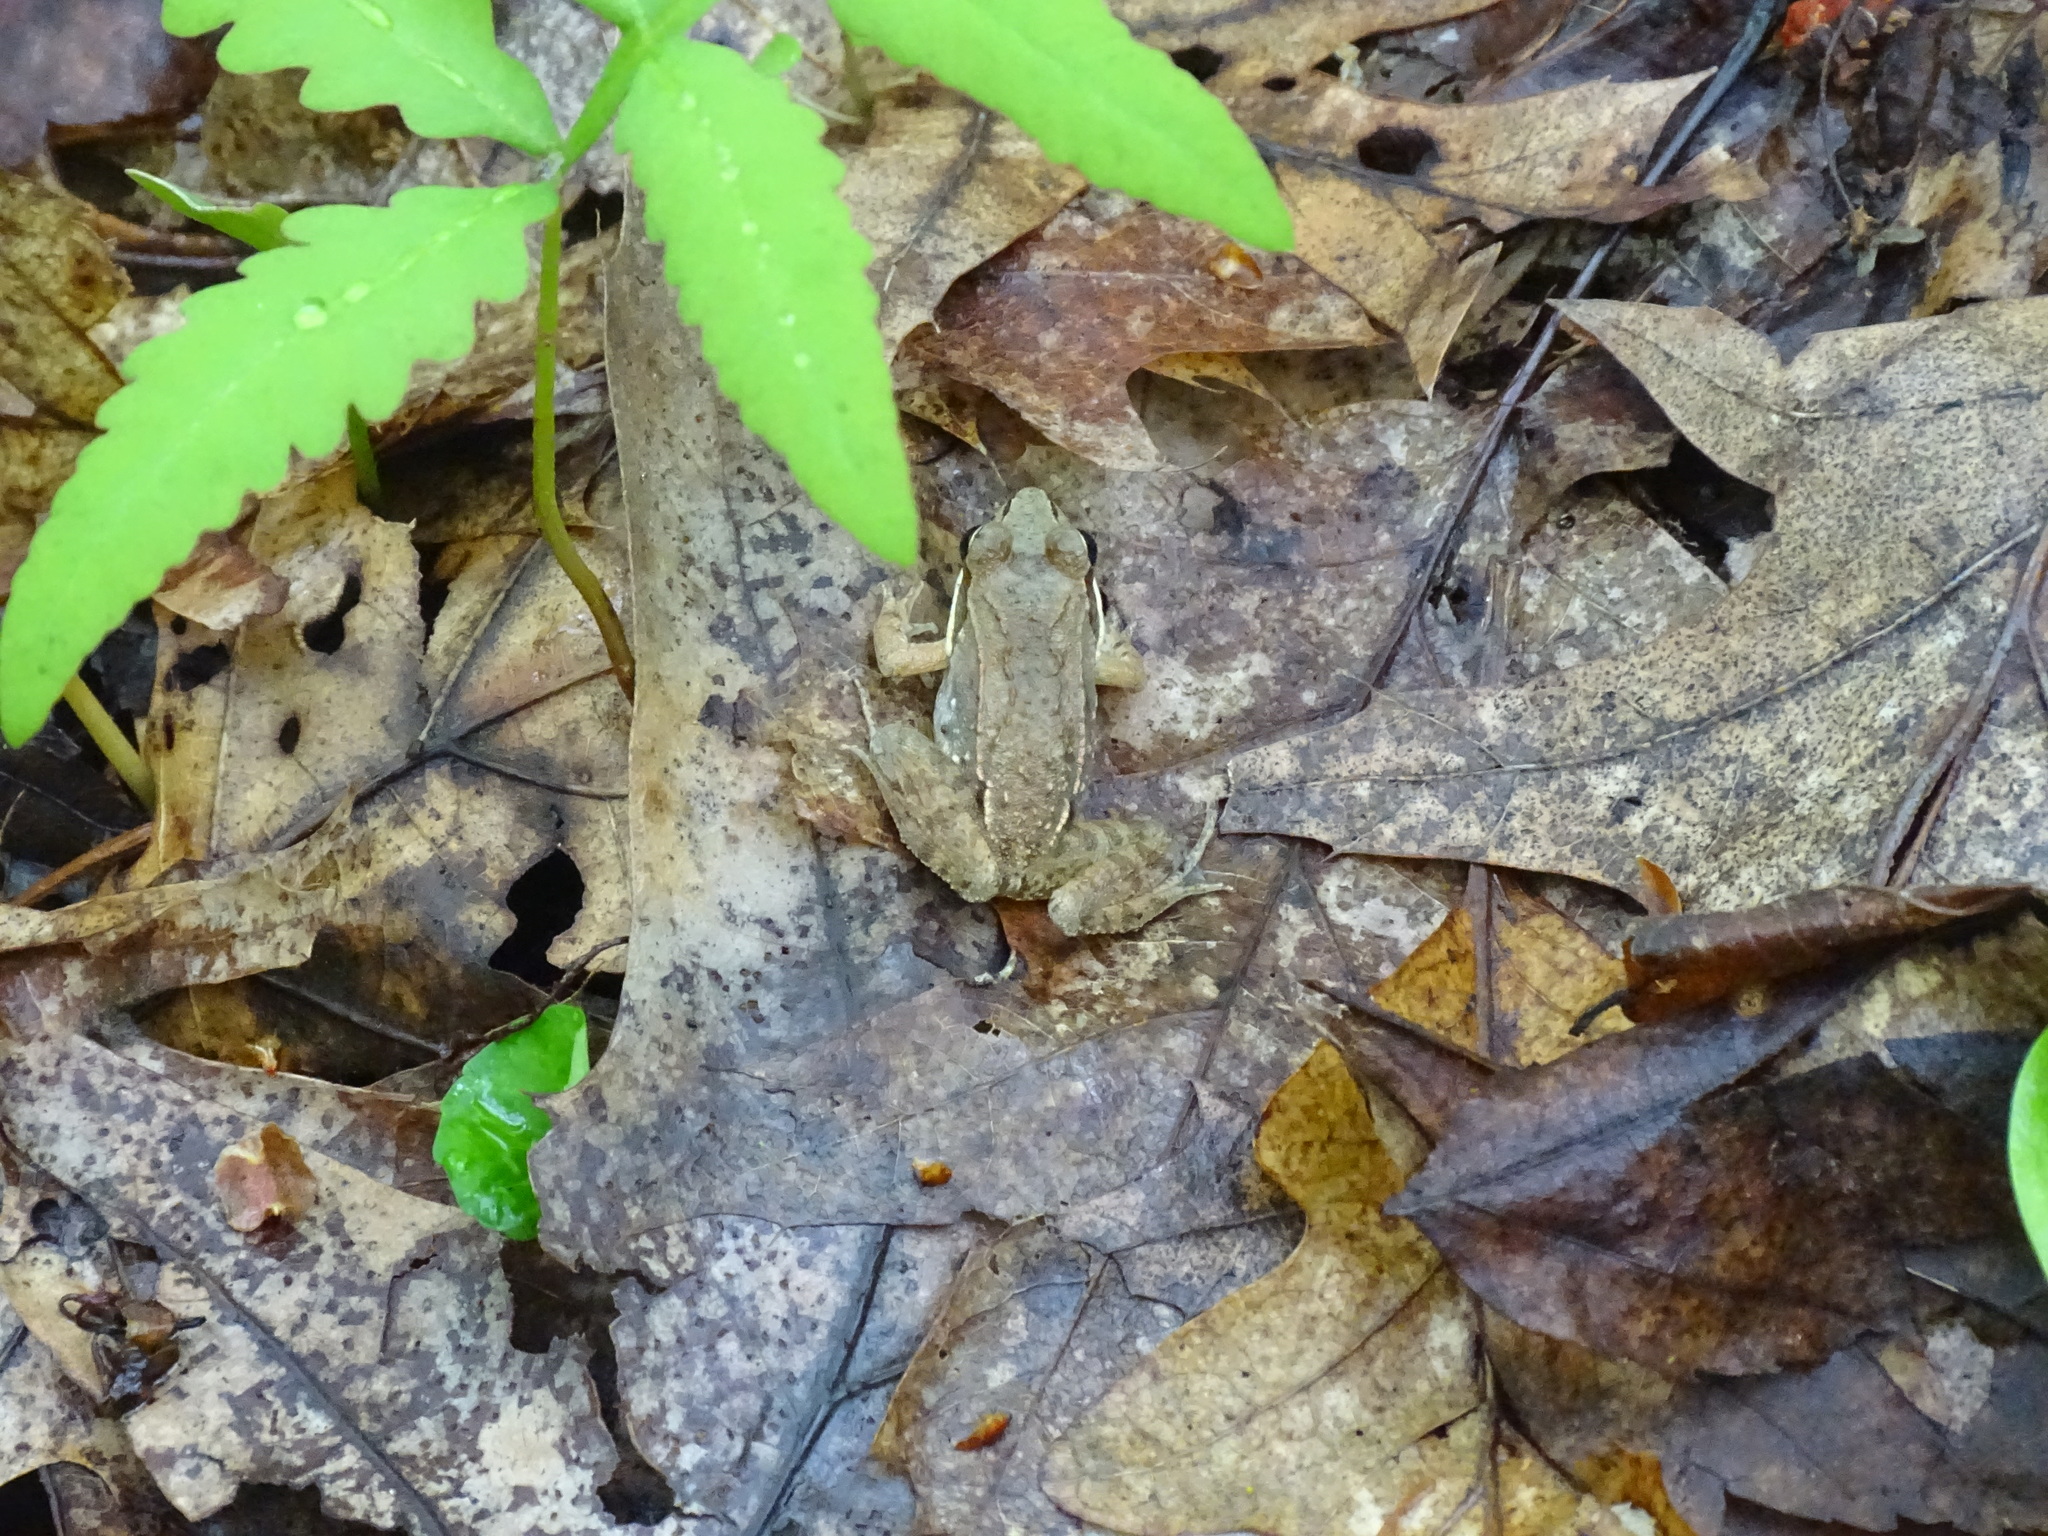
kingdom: Animalia
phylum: Chordata
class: Amphibia
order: Anura
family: Ranidae
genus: Lithobates
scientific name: Lithobates sylvaticus
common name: Wood frog
